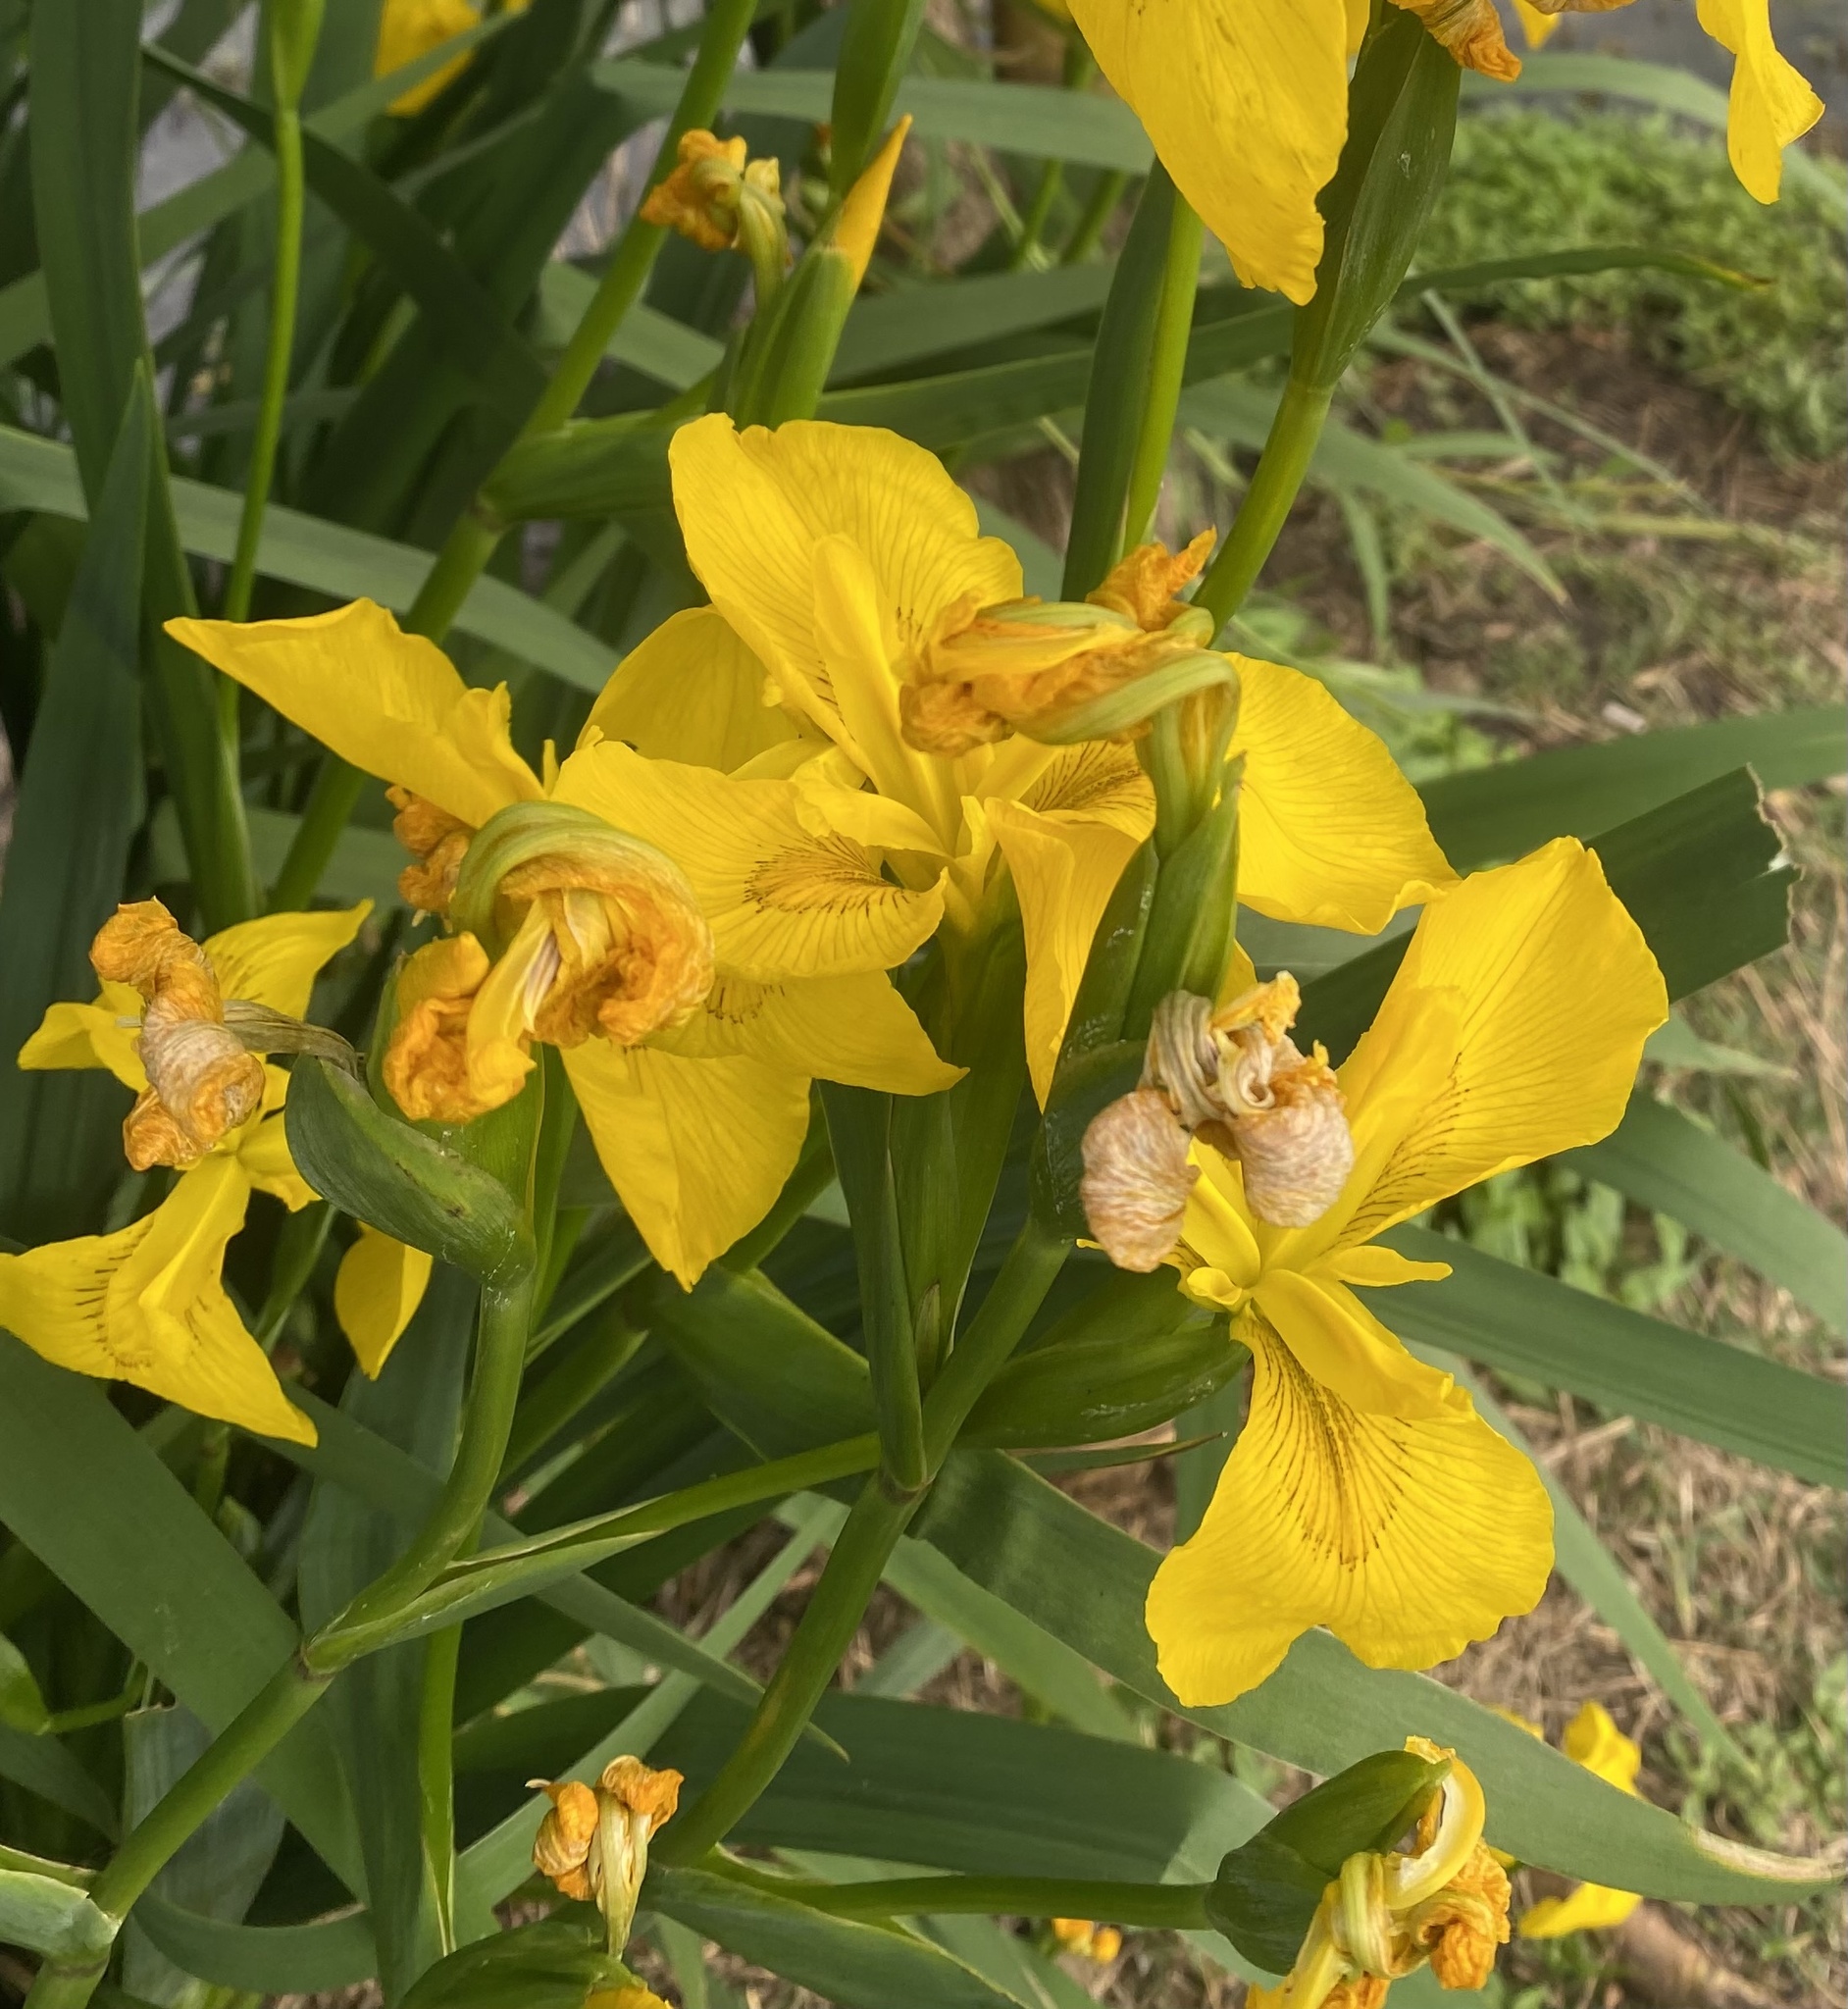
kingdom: Plantae
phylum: Tracheophyta
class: Liliopsida
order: Asparagales
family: Iridaceae
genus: Iris
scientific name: Iris pseudacorus
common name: Yellow flag
